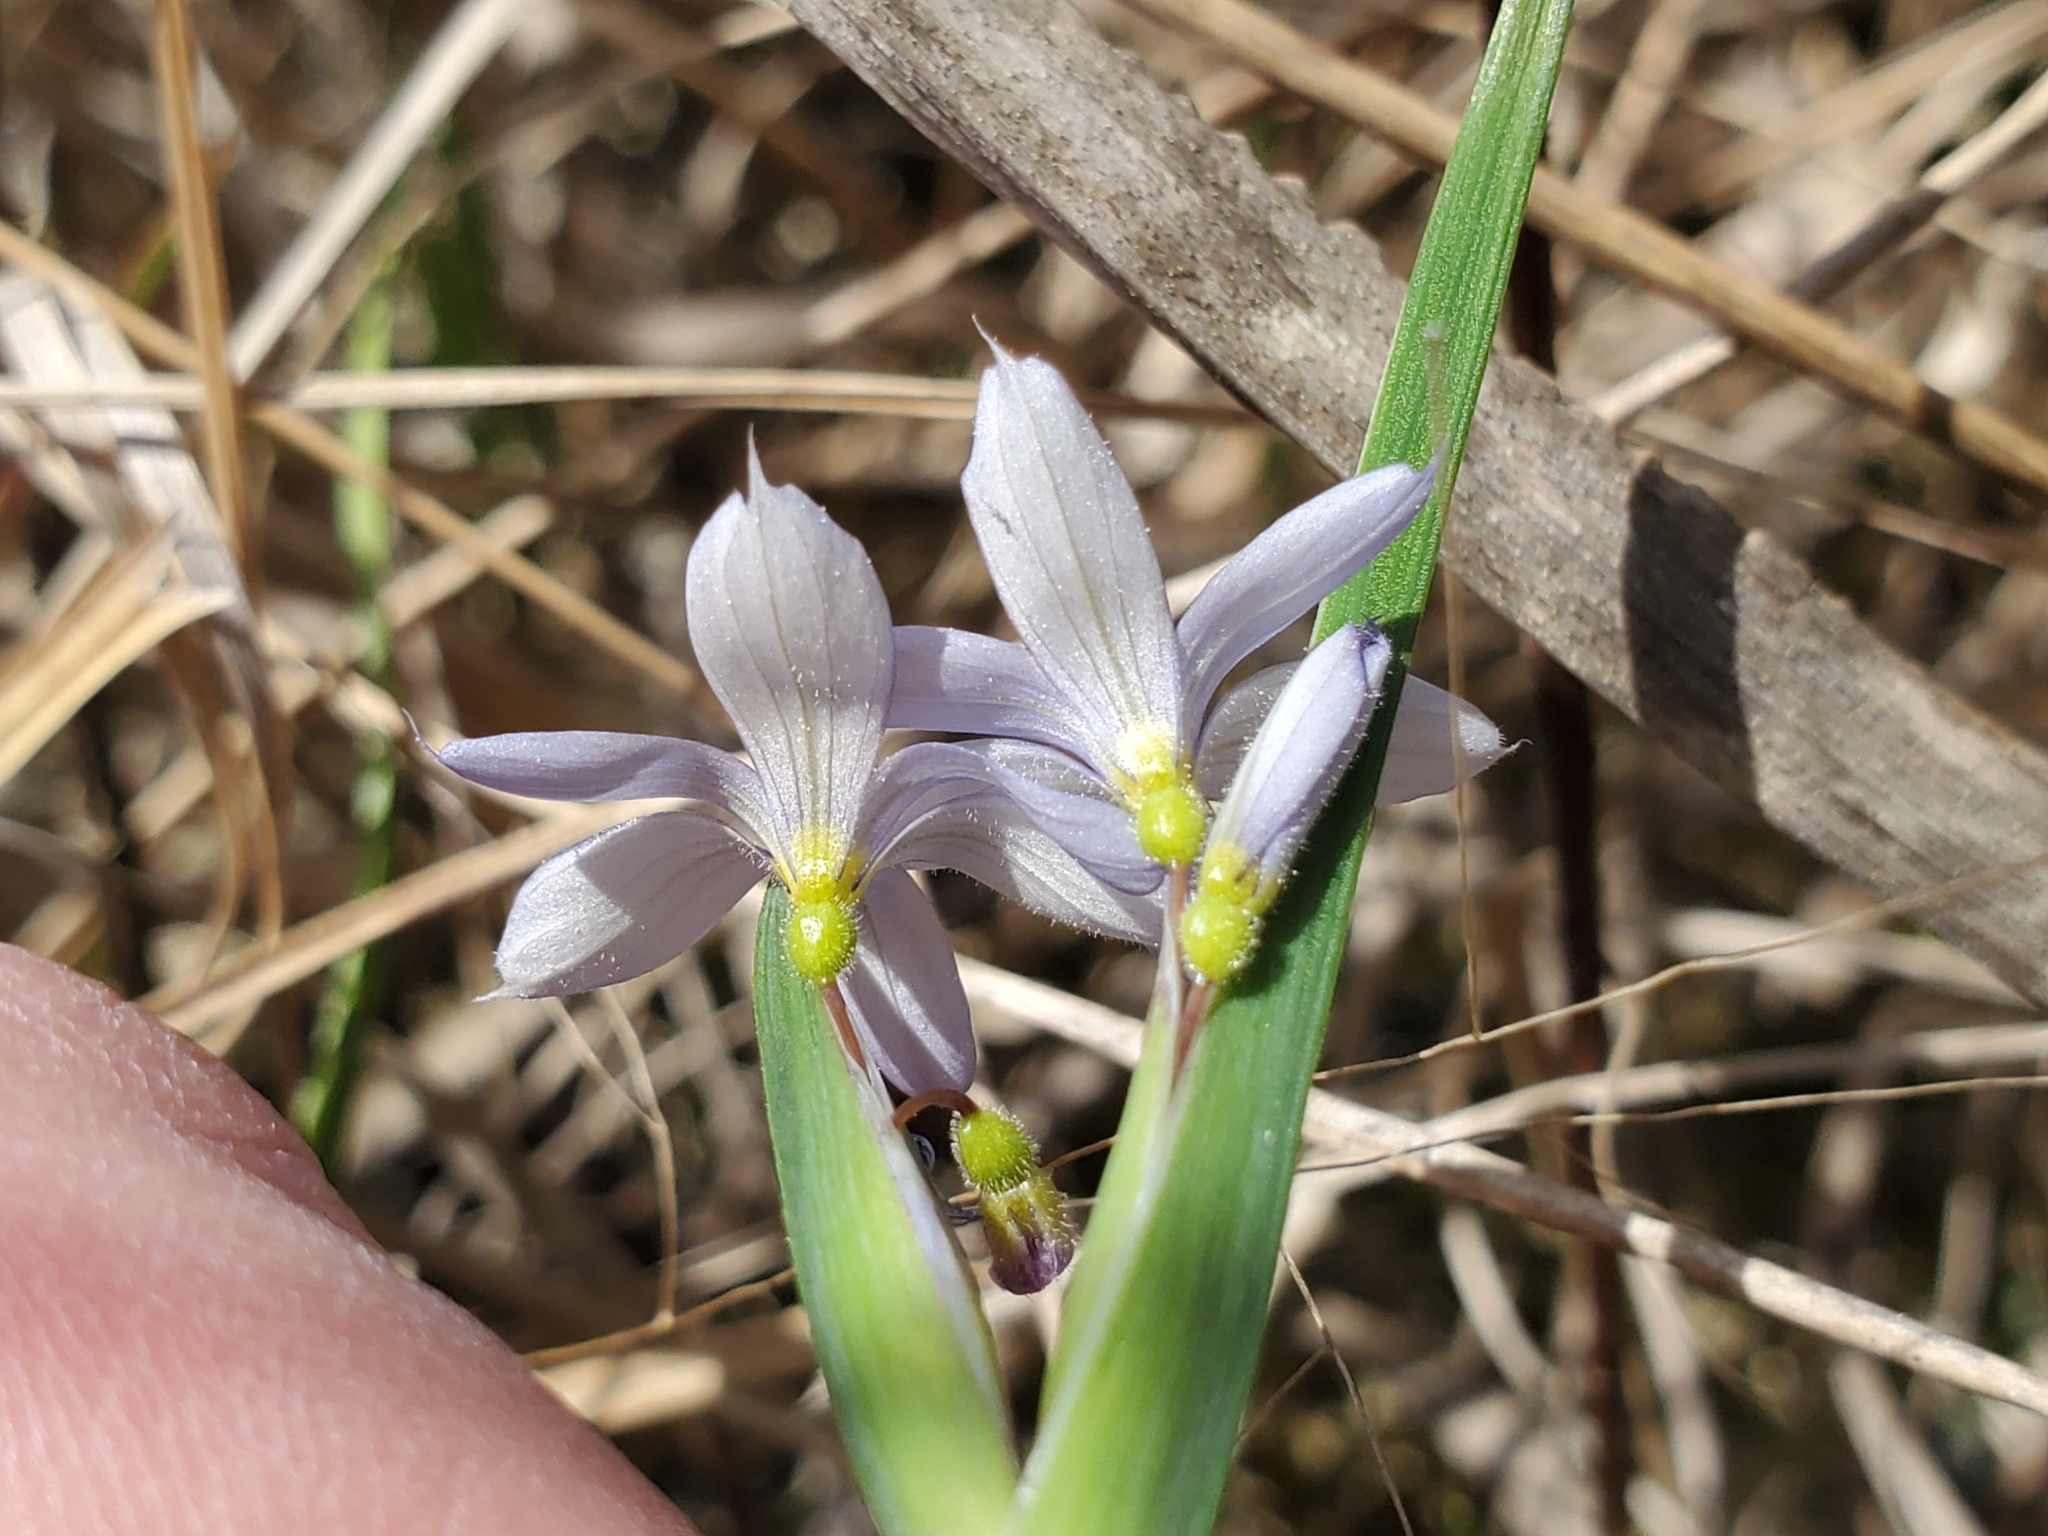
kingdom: Plantae
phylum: Tracheophyta
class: Liliopsida
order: Asparagales
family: Iridaceae
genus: Sisyrinchium
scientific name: Sisyrinchium albidum
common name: Pale blue-eyed-grass
